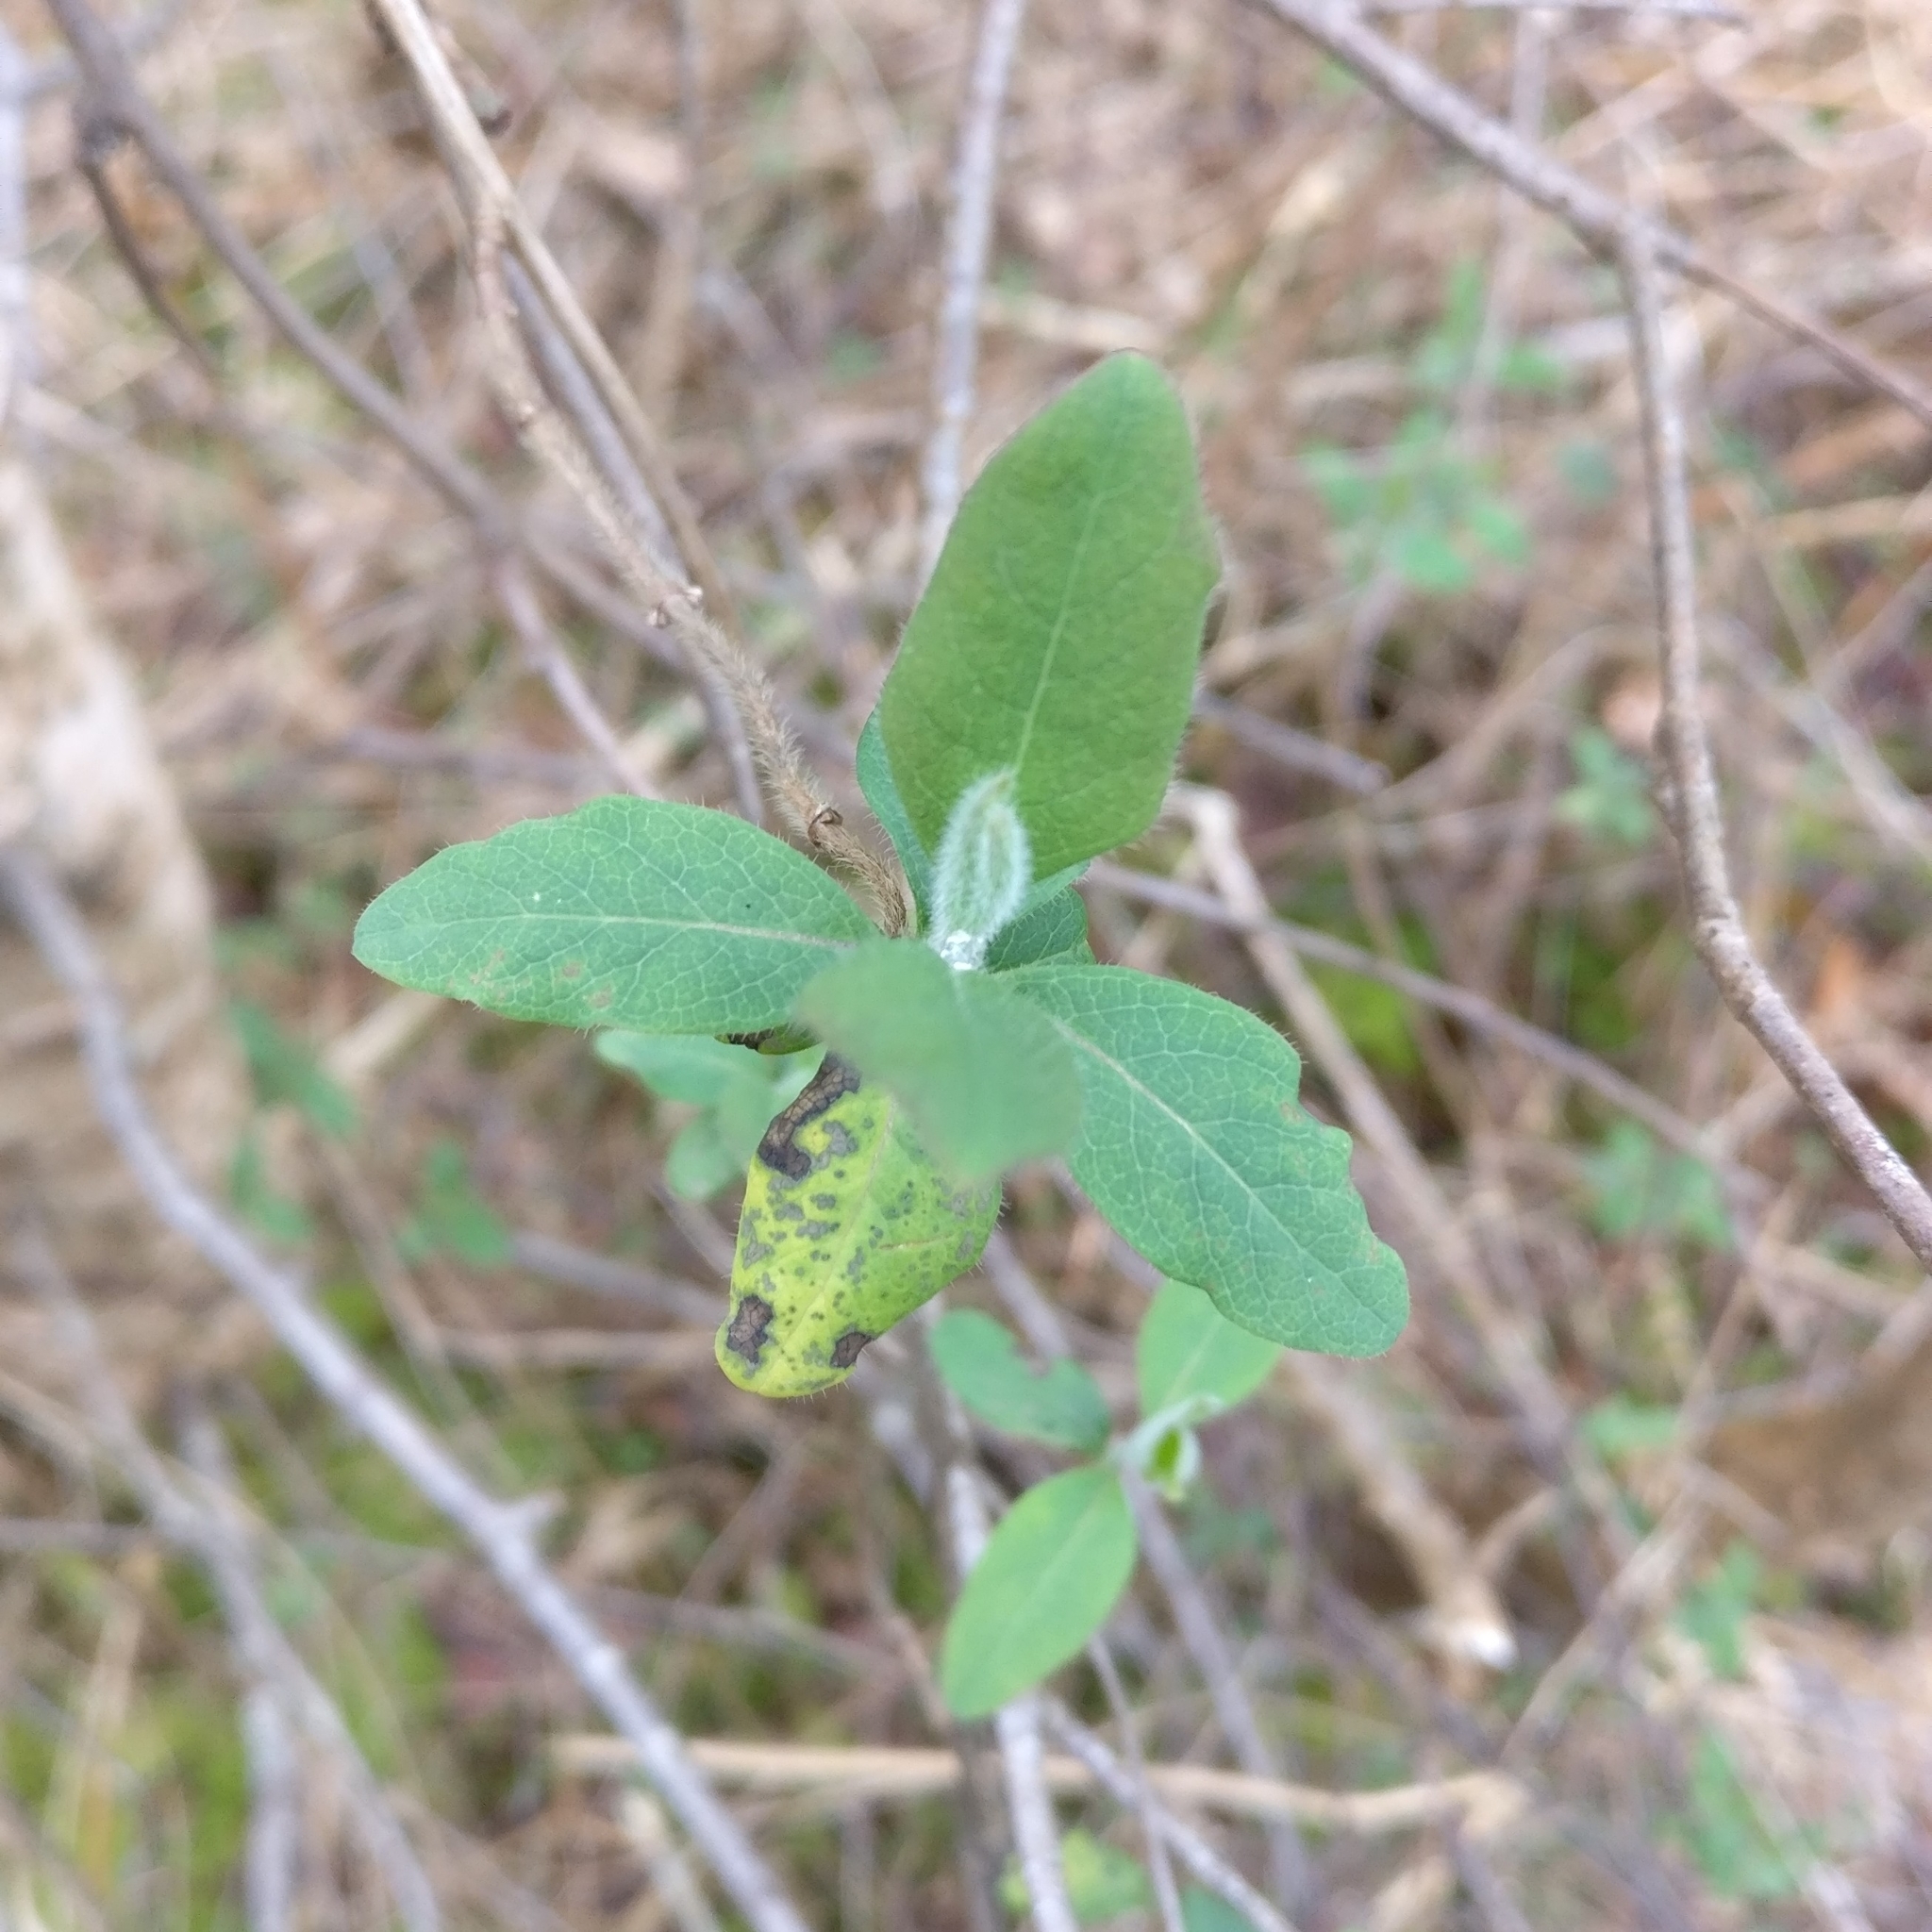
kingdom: Plantae
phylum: Tracheophyta
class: Magnoliopsida
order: Dipsacales
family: Caprifoliaceae
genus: Lonicera
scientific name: Lonicera periclymenum
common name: European honeysuckle
